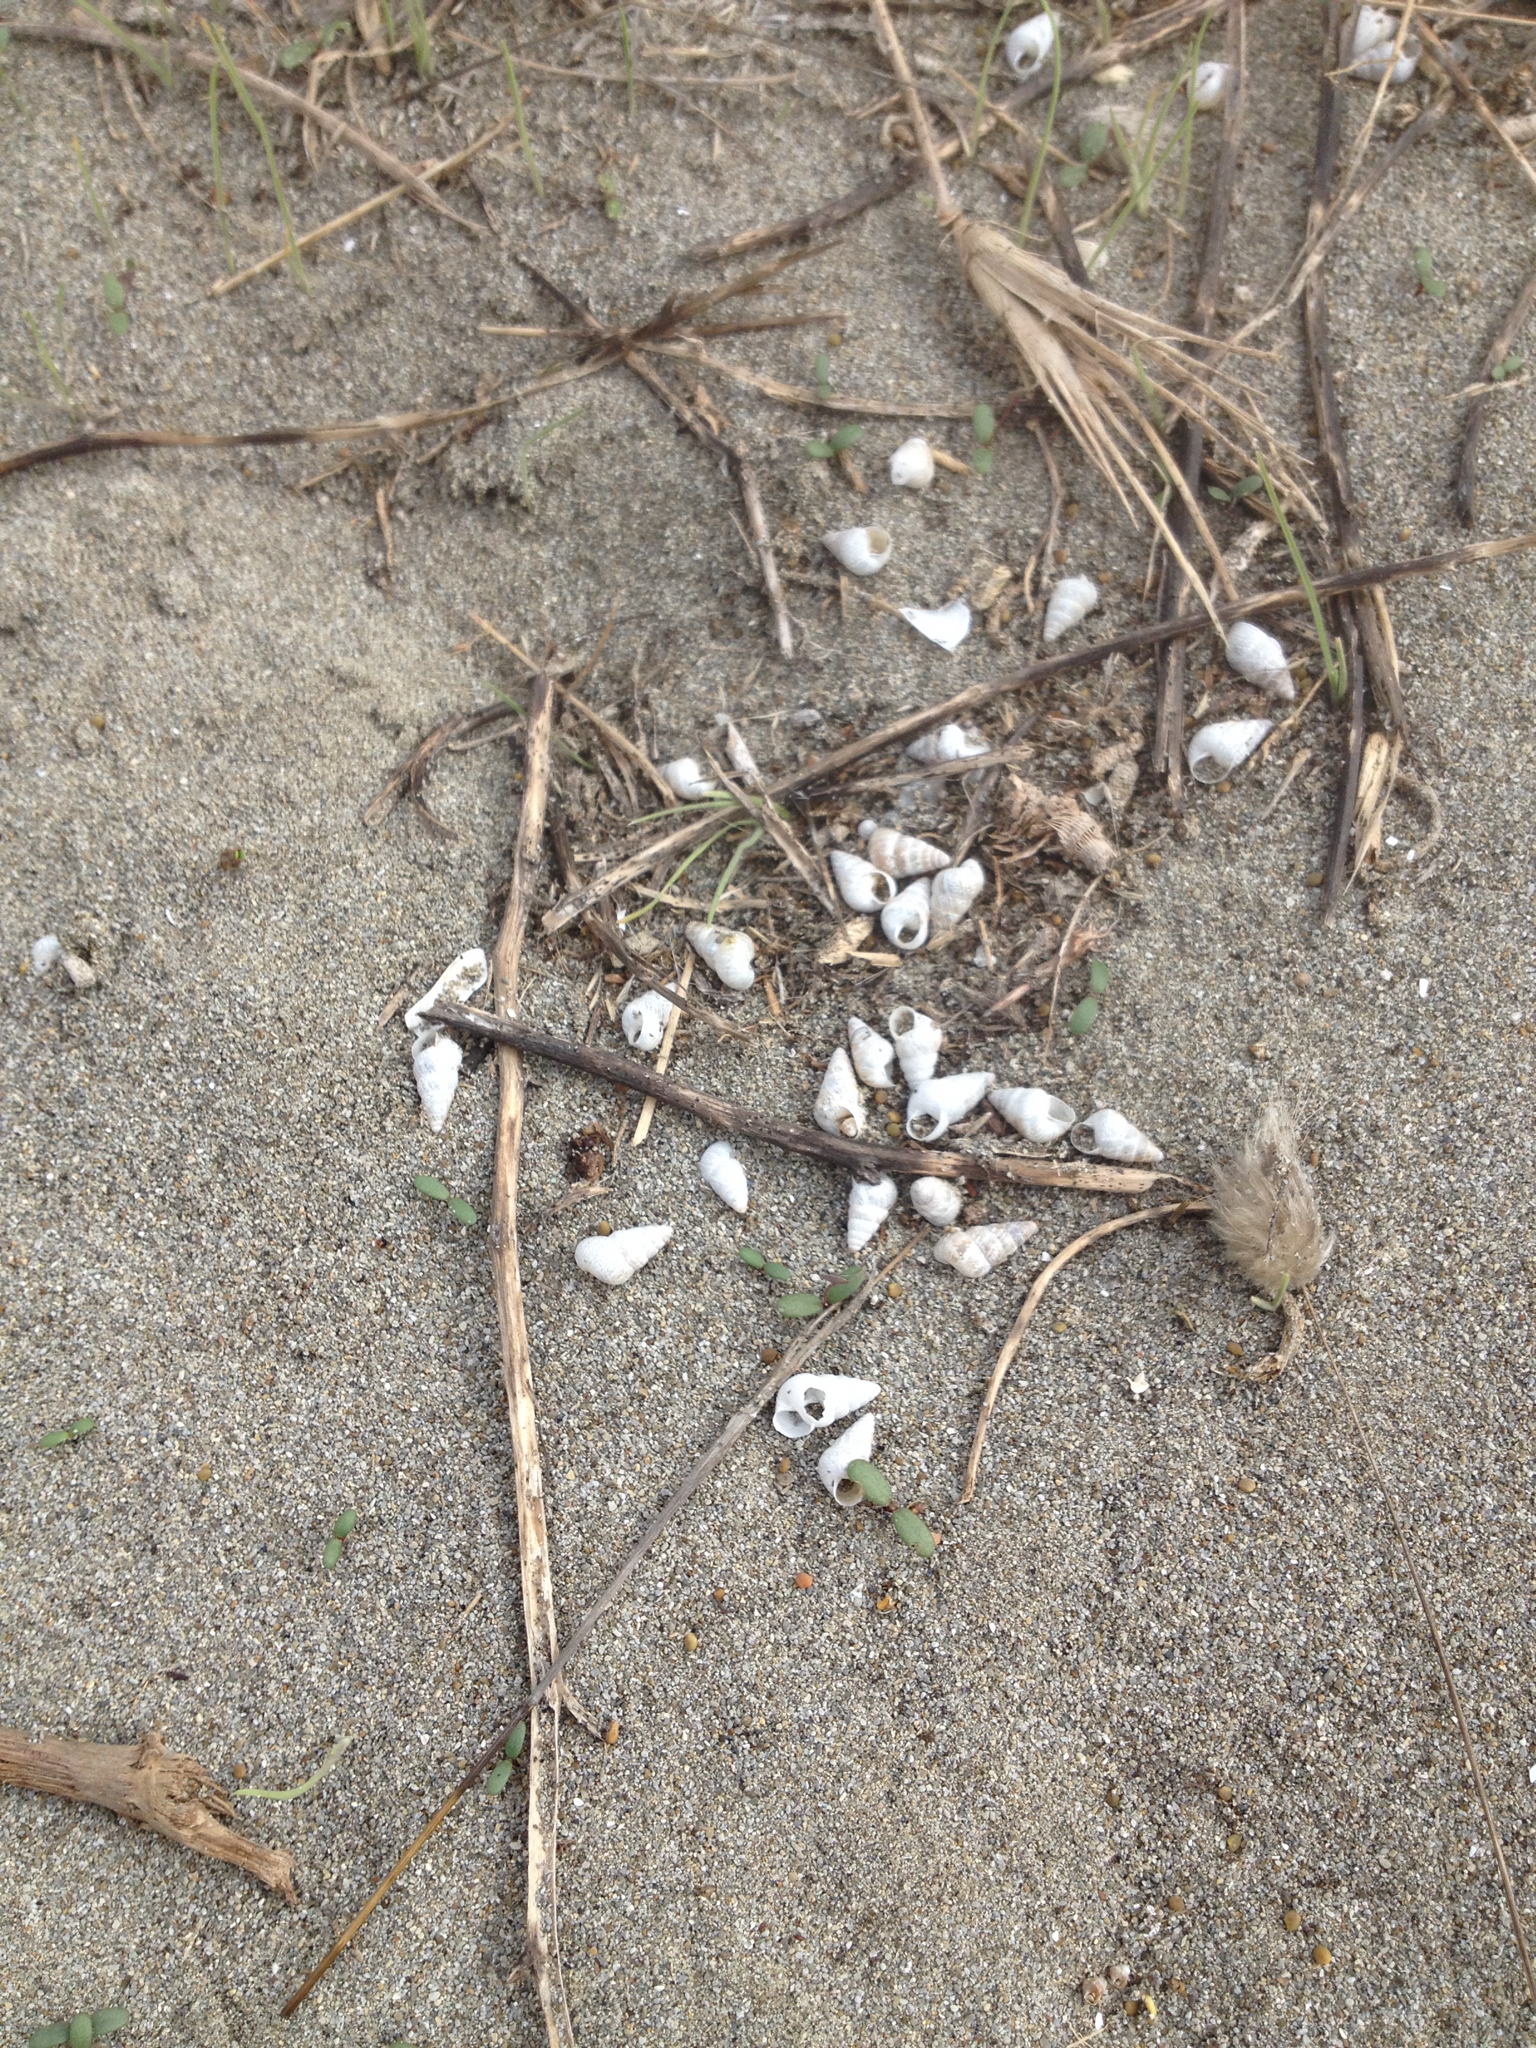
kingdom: Animalia
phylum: Mollusca
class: Gastropoda
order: Stylommatophora
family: Geomitridae
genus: Cochlicella
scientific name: Cochlicella barbara
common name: Potbellied helicellid
